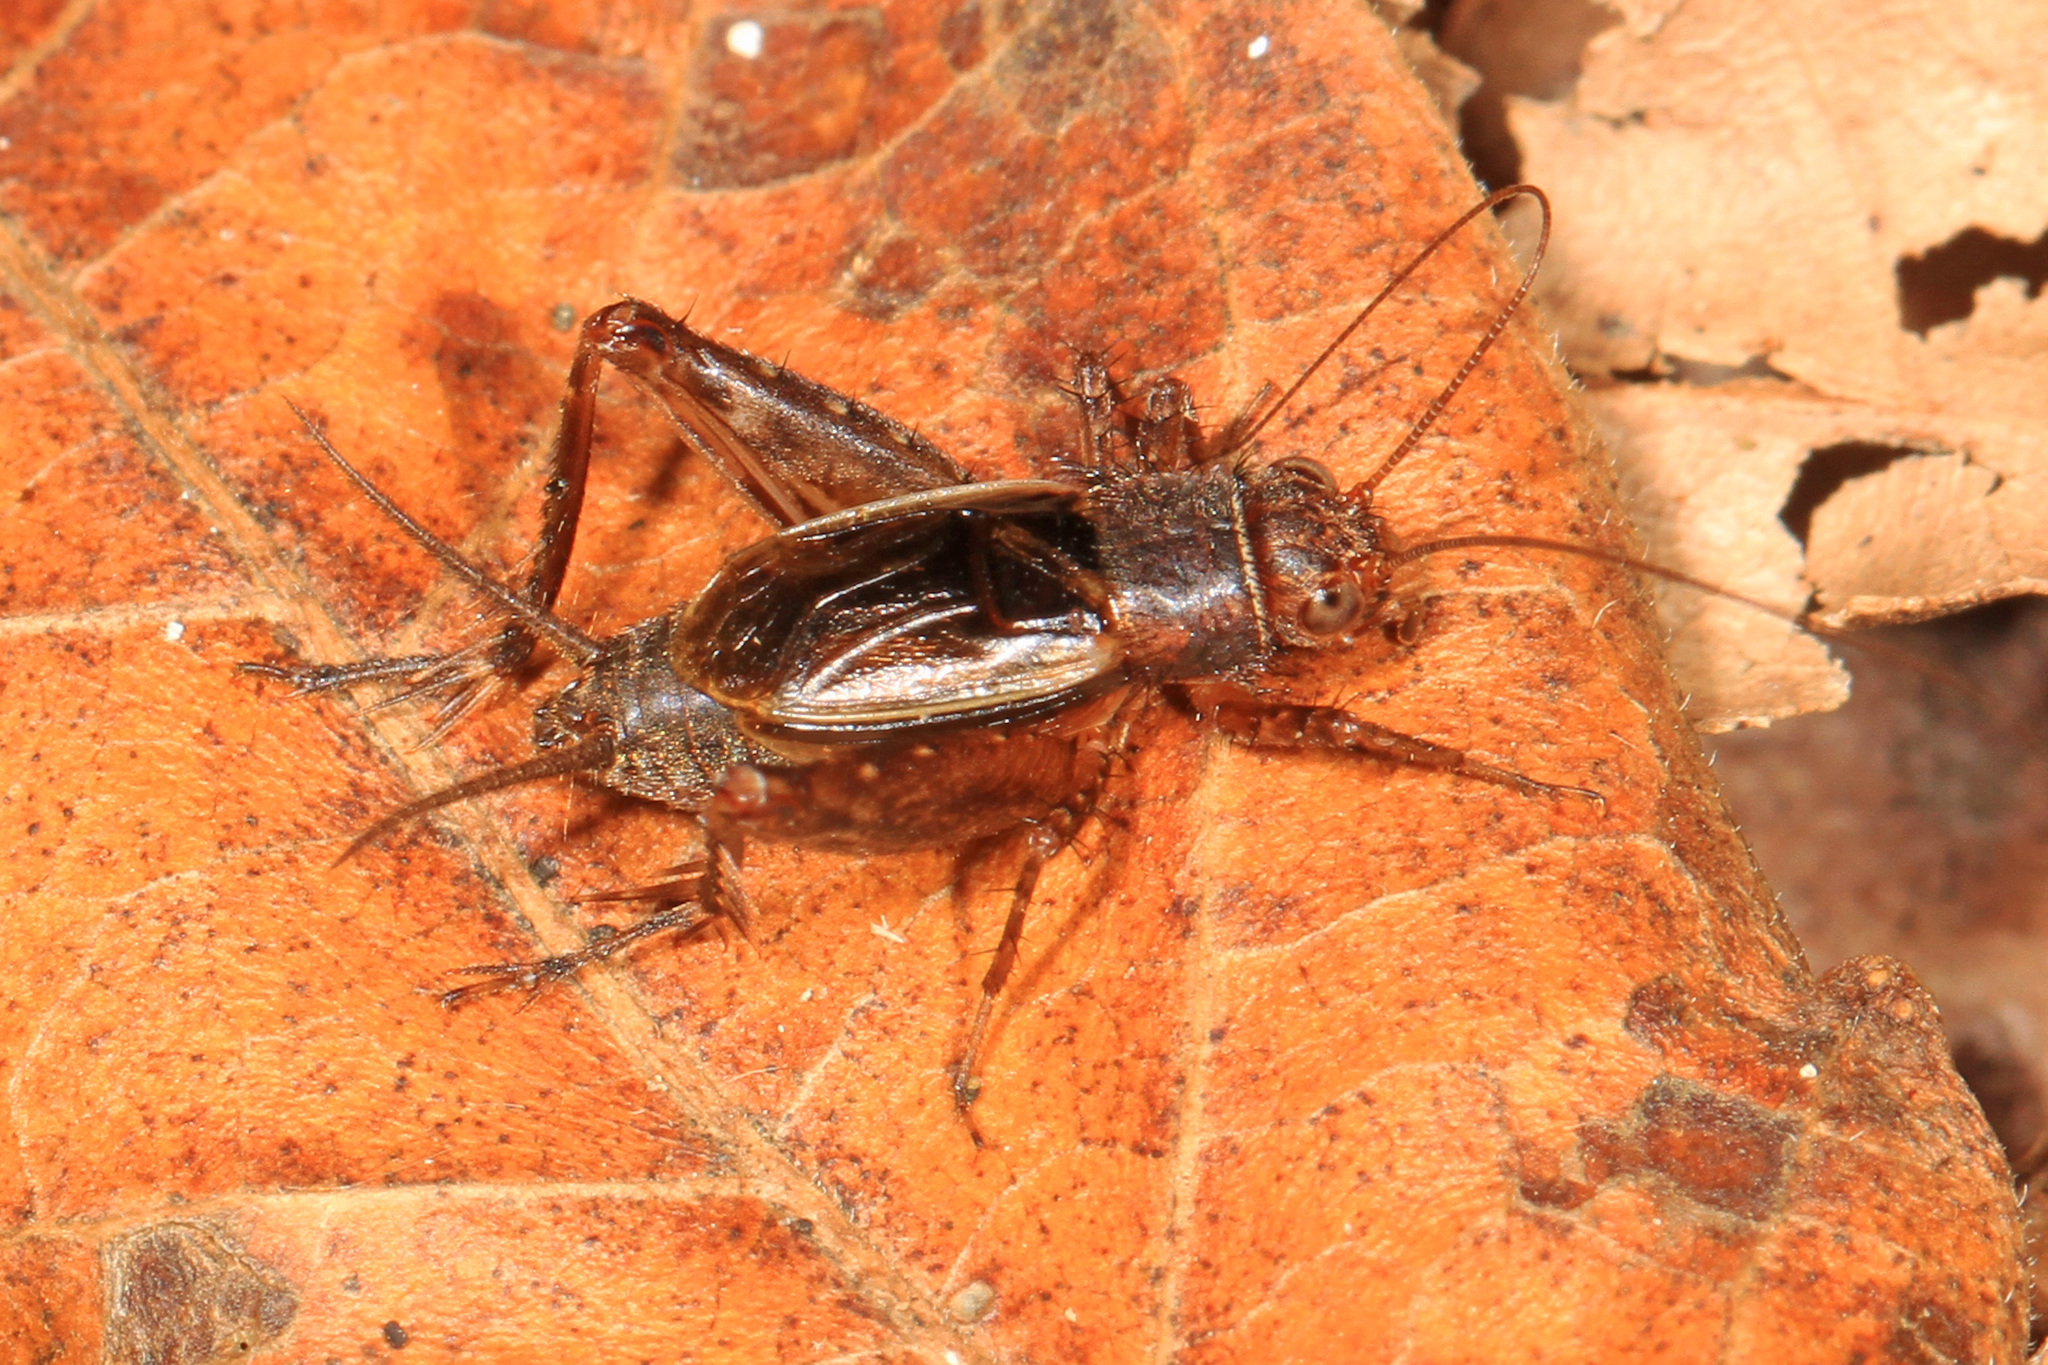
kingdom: Animalia
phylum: Arthropoda
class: Insecta
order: Orthoptera
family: Trigonidiidae
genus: Allonemobius
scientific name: Allonemobius tinnulus
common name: Tinkling ground cricket
